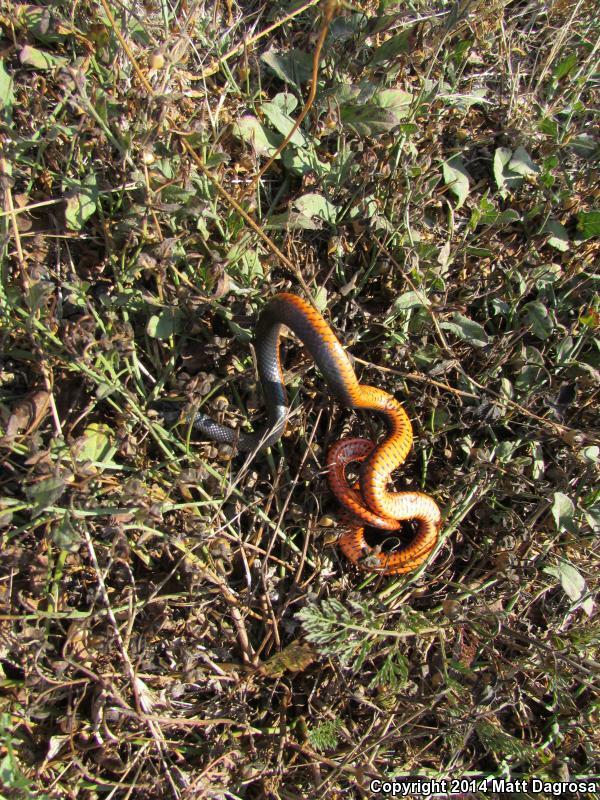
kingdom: Animalia
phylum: Chordata
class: Squamata
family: Colubridae
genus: Diadophis
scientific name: Diadophis punctatus
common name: Ringneck snake
